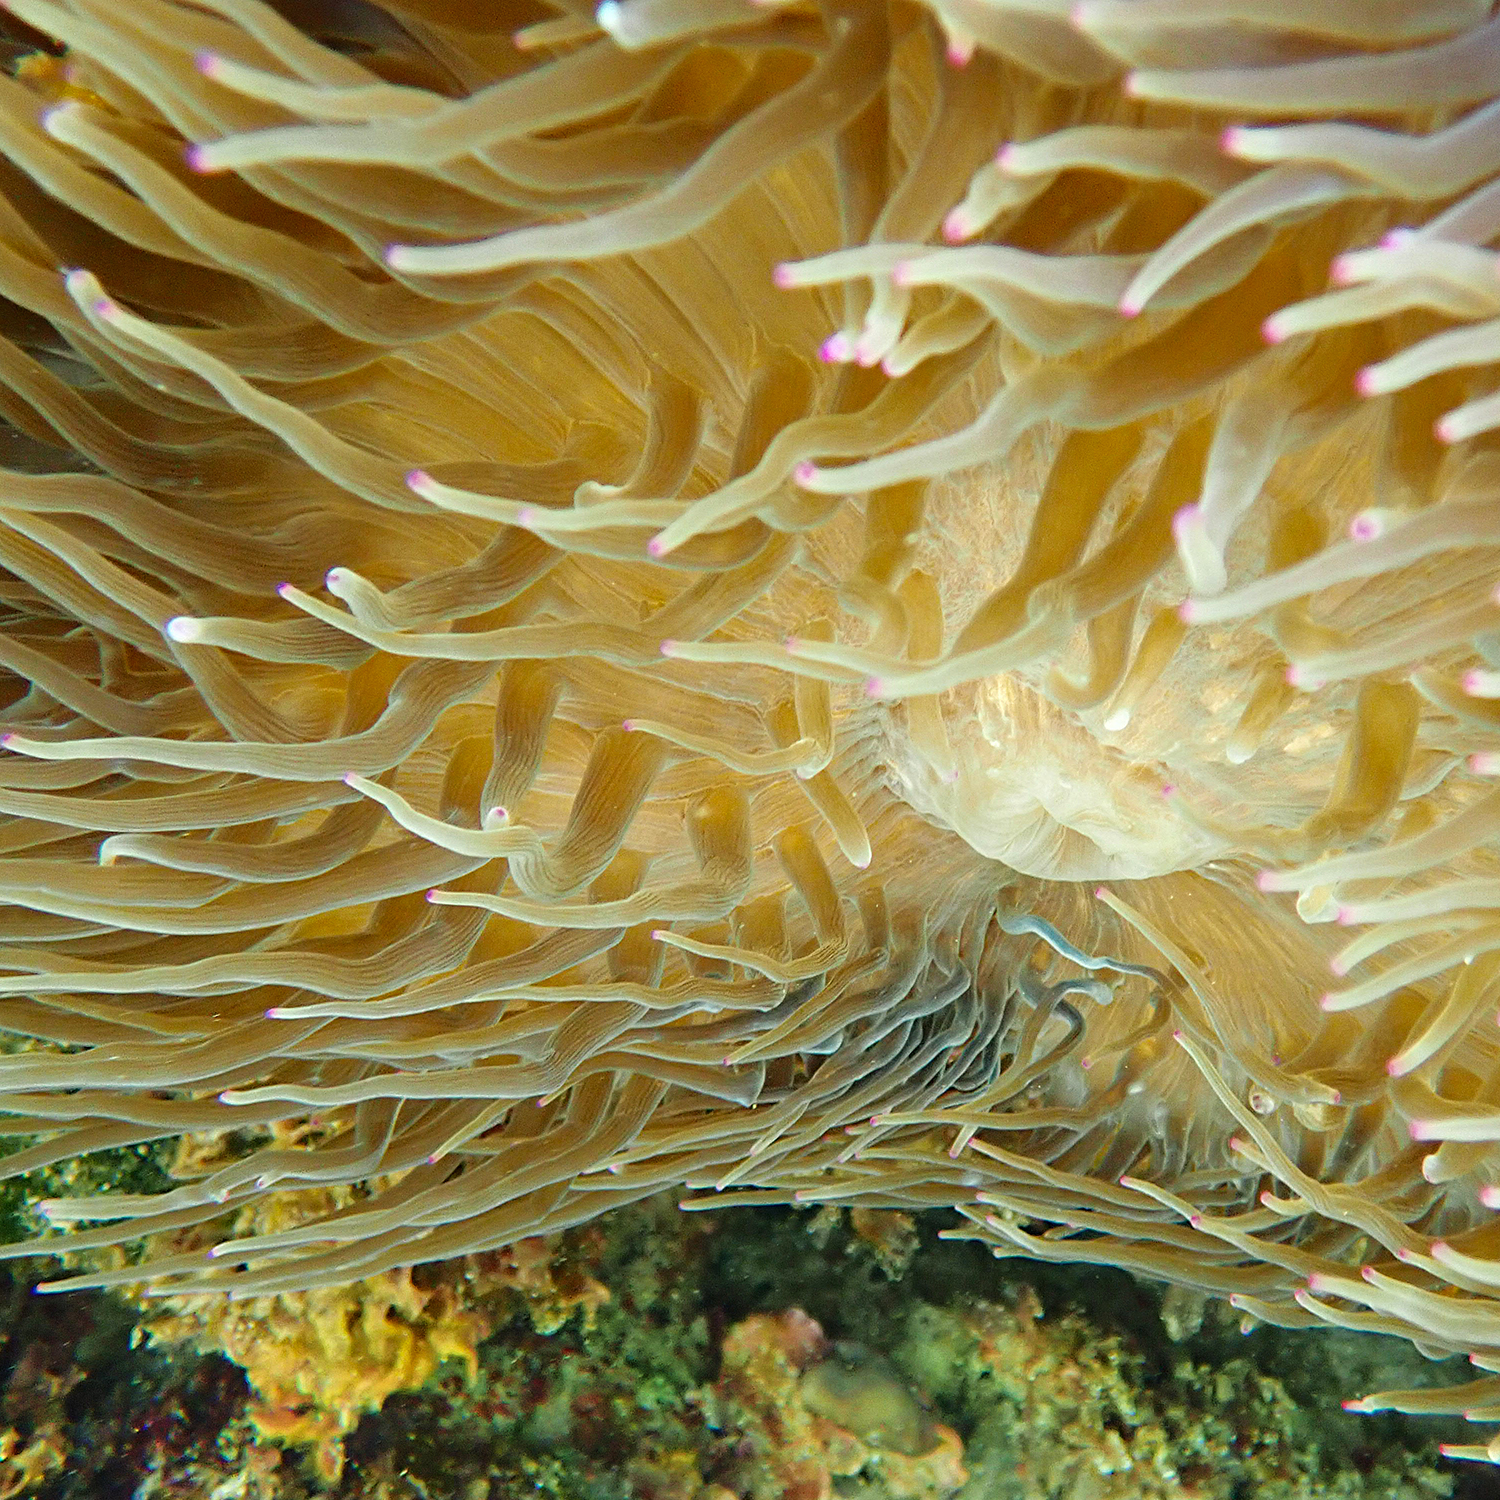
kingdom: Animalia
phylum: Cnidaria
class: Anthozoa
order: Actiniaria
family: Actiniidae
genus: Entacmaea
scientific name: Entacmaea quadricolor
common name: Bulb tentacle sea anemone
